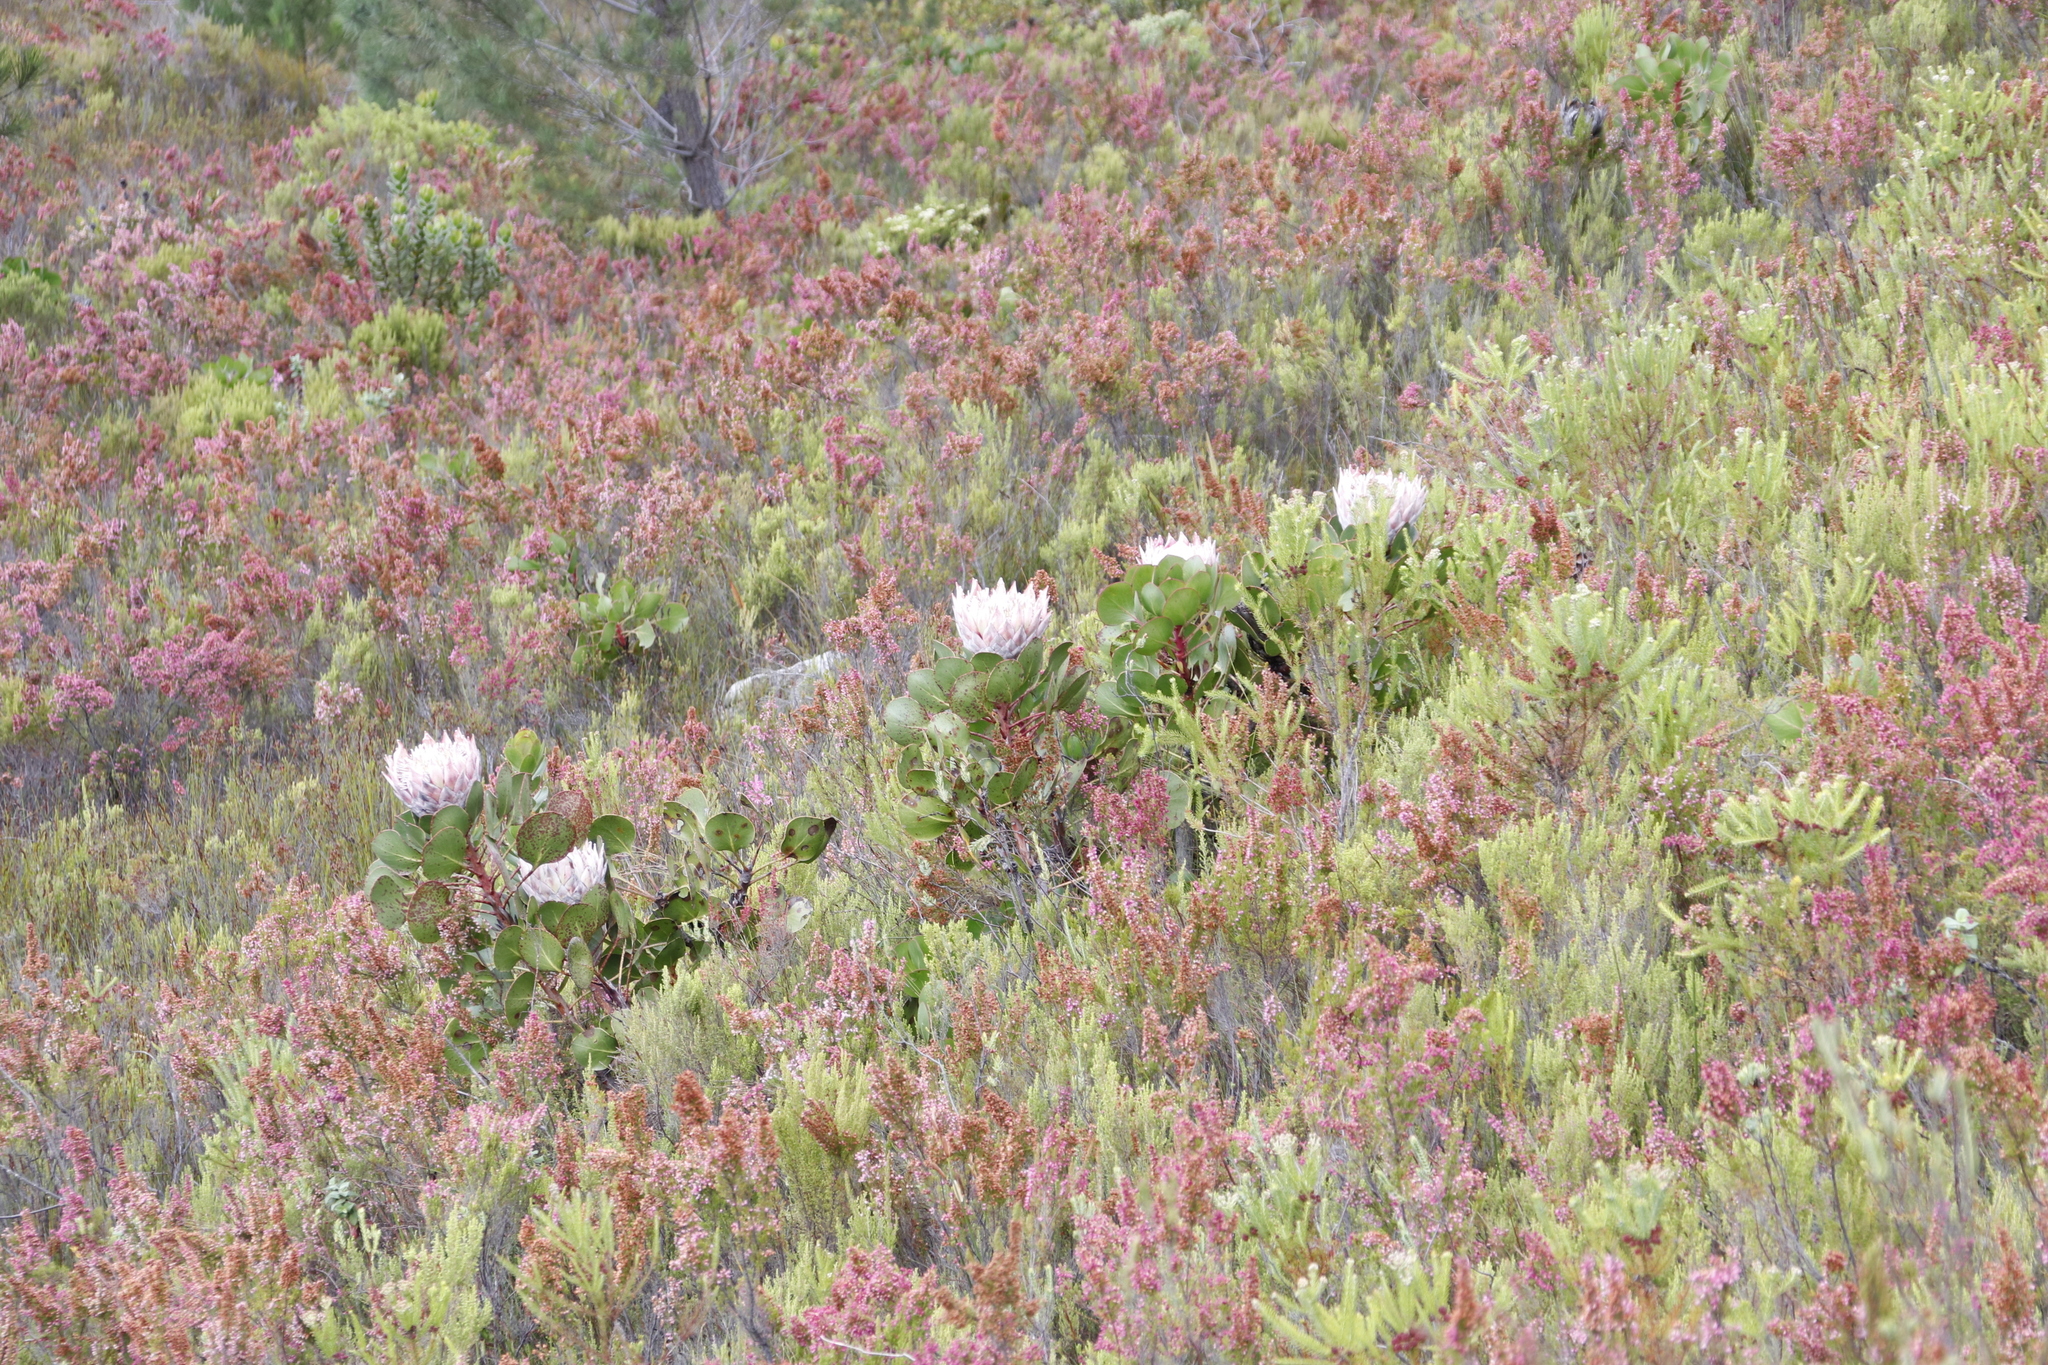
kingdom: Plantae
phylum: Tracheophyta
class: Magnoliopsida
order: Proteales
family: Proteaceae
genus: Protea
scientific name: Protea cynaroides
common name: King protea
